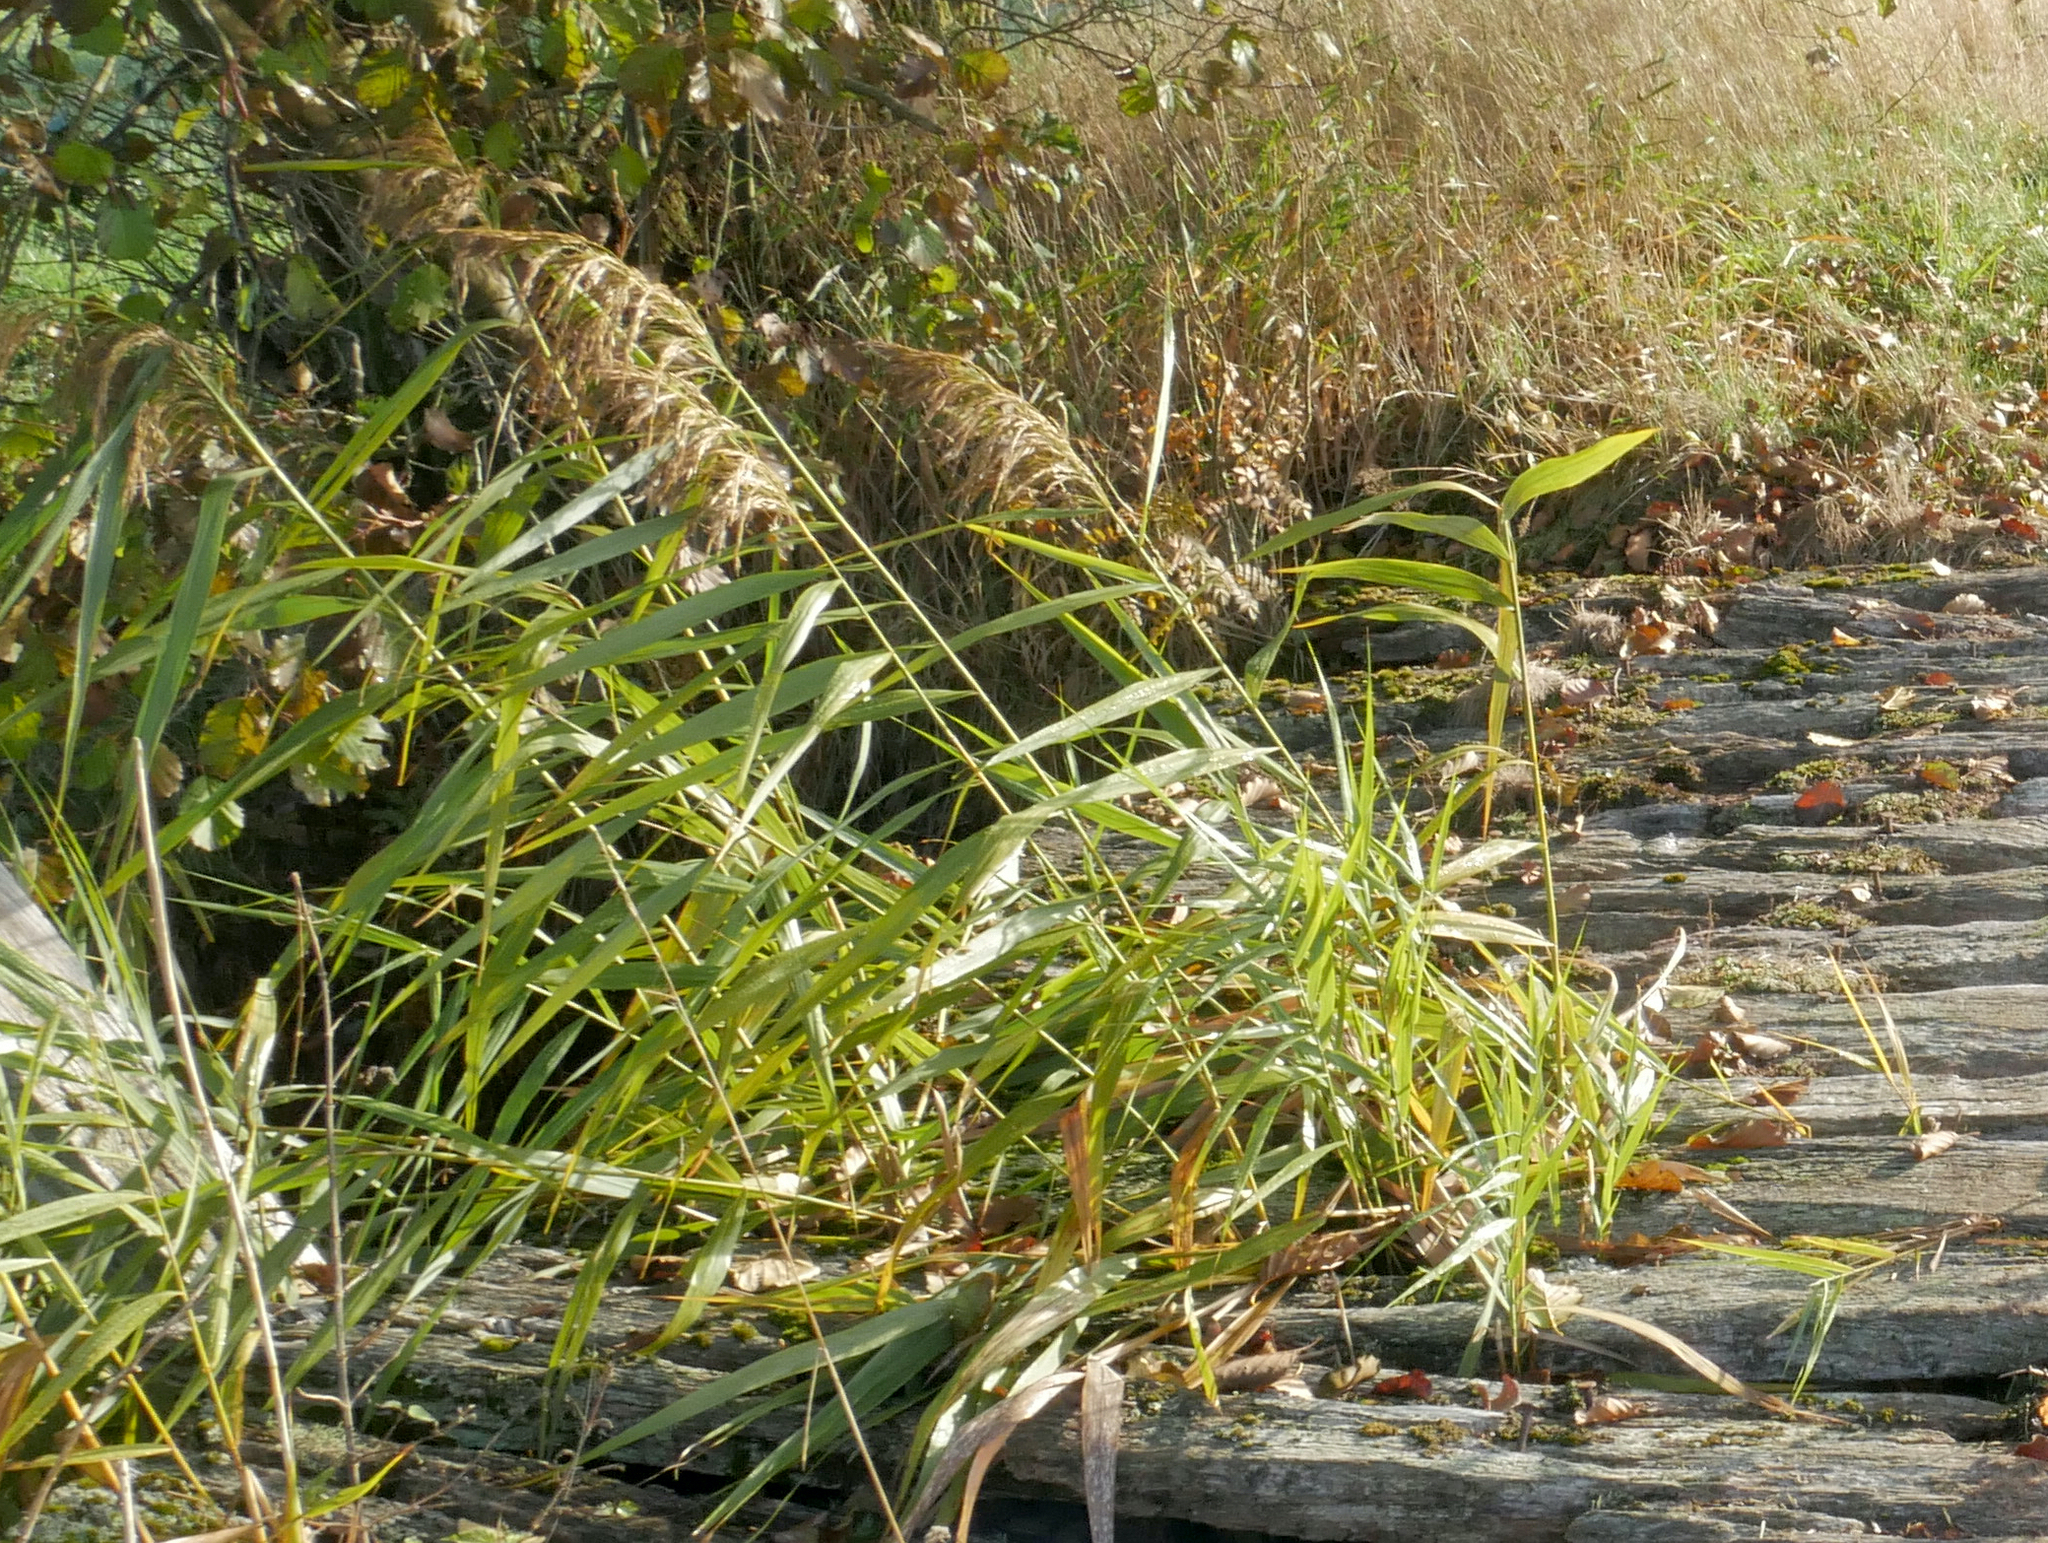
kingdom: Plantae
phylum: Tracheophyta
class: Liliopsida
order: Poales
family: Poaceae
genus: Phragmites
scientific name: Phragmites australis
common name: Common reed
